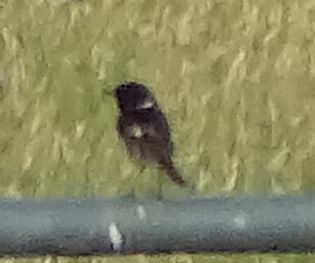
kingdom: Animalia
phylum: Chordata
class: Aves
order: Passeriformes
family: Muscicapidae
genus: Saxicola
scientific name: Saxicola rubicola
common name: European stonechat
